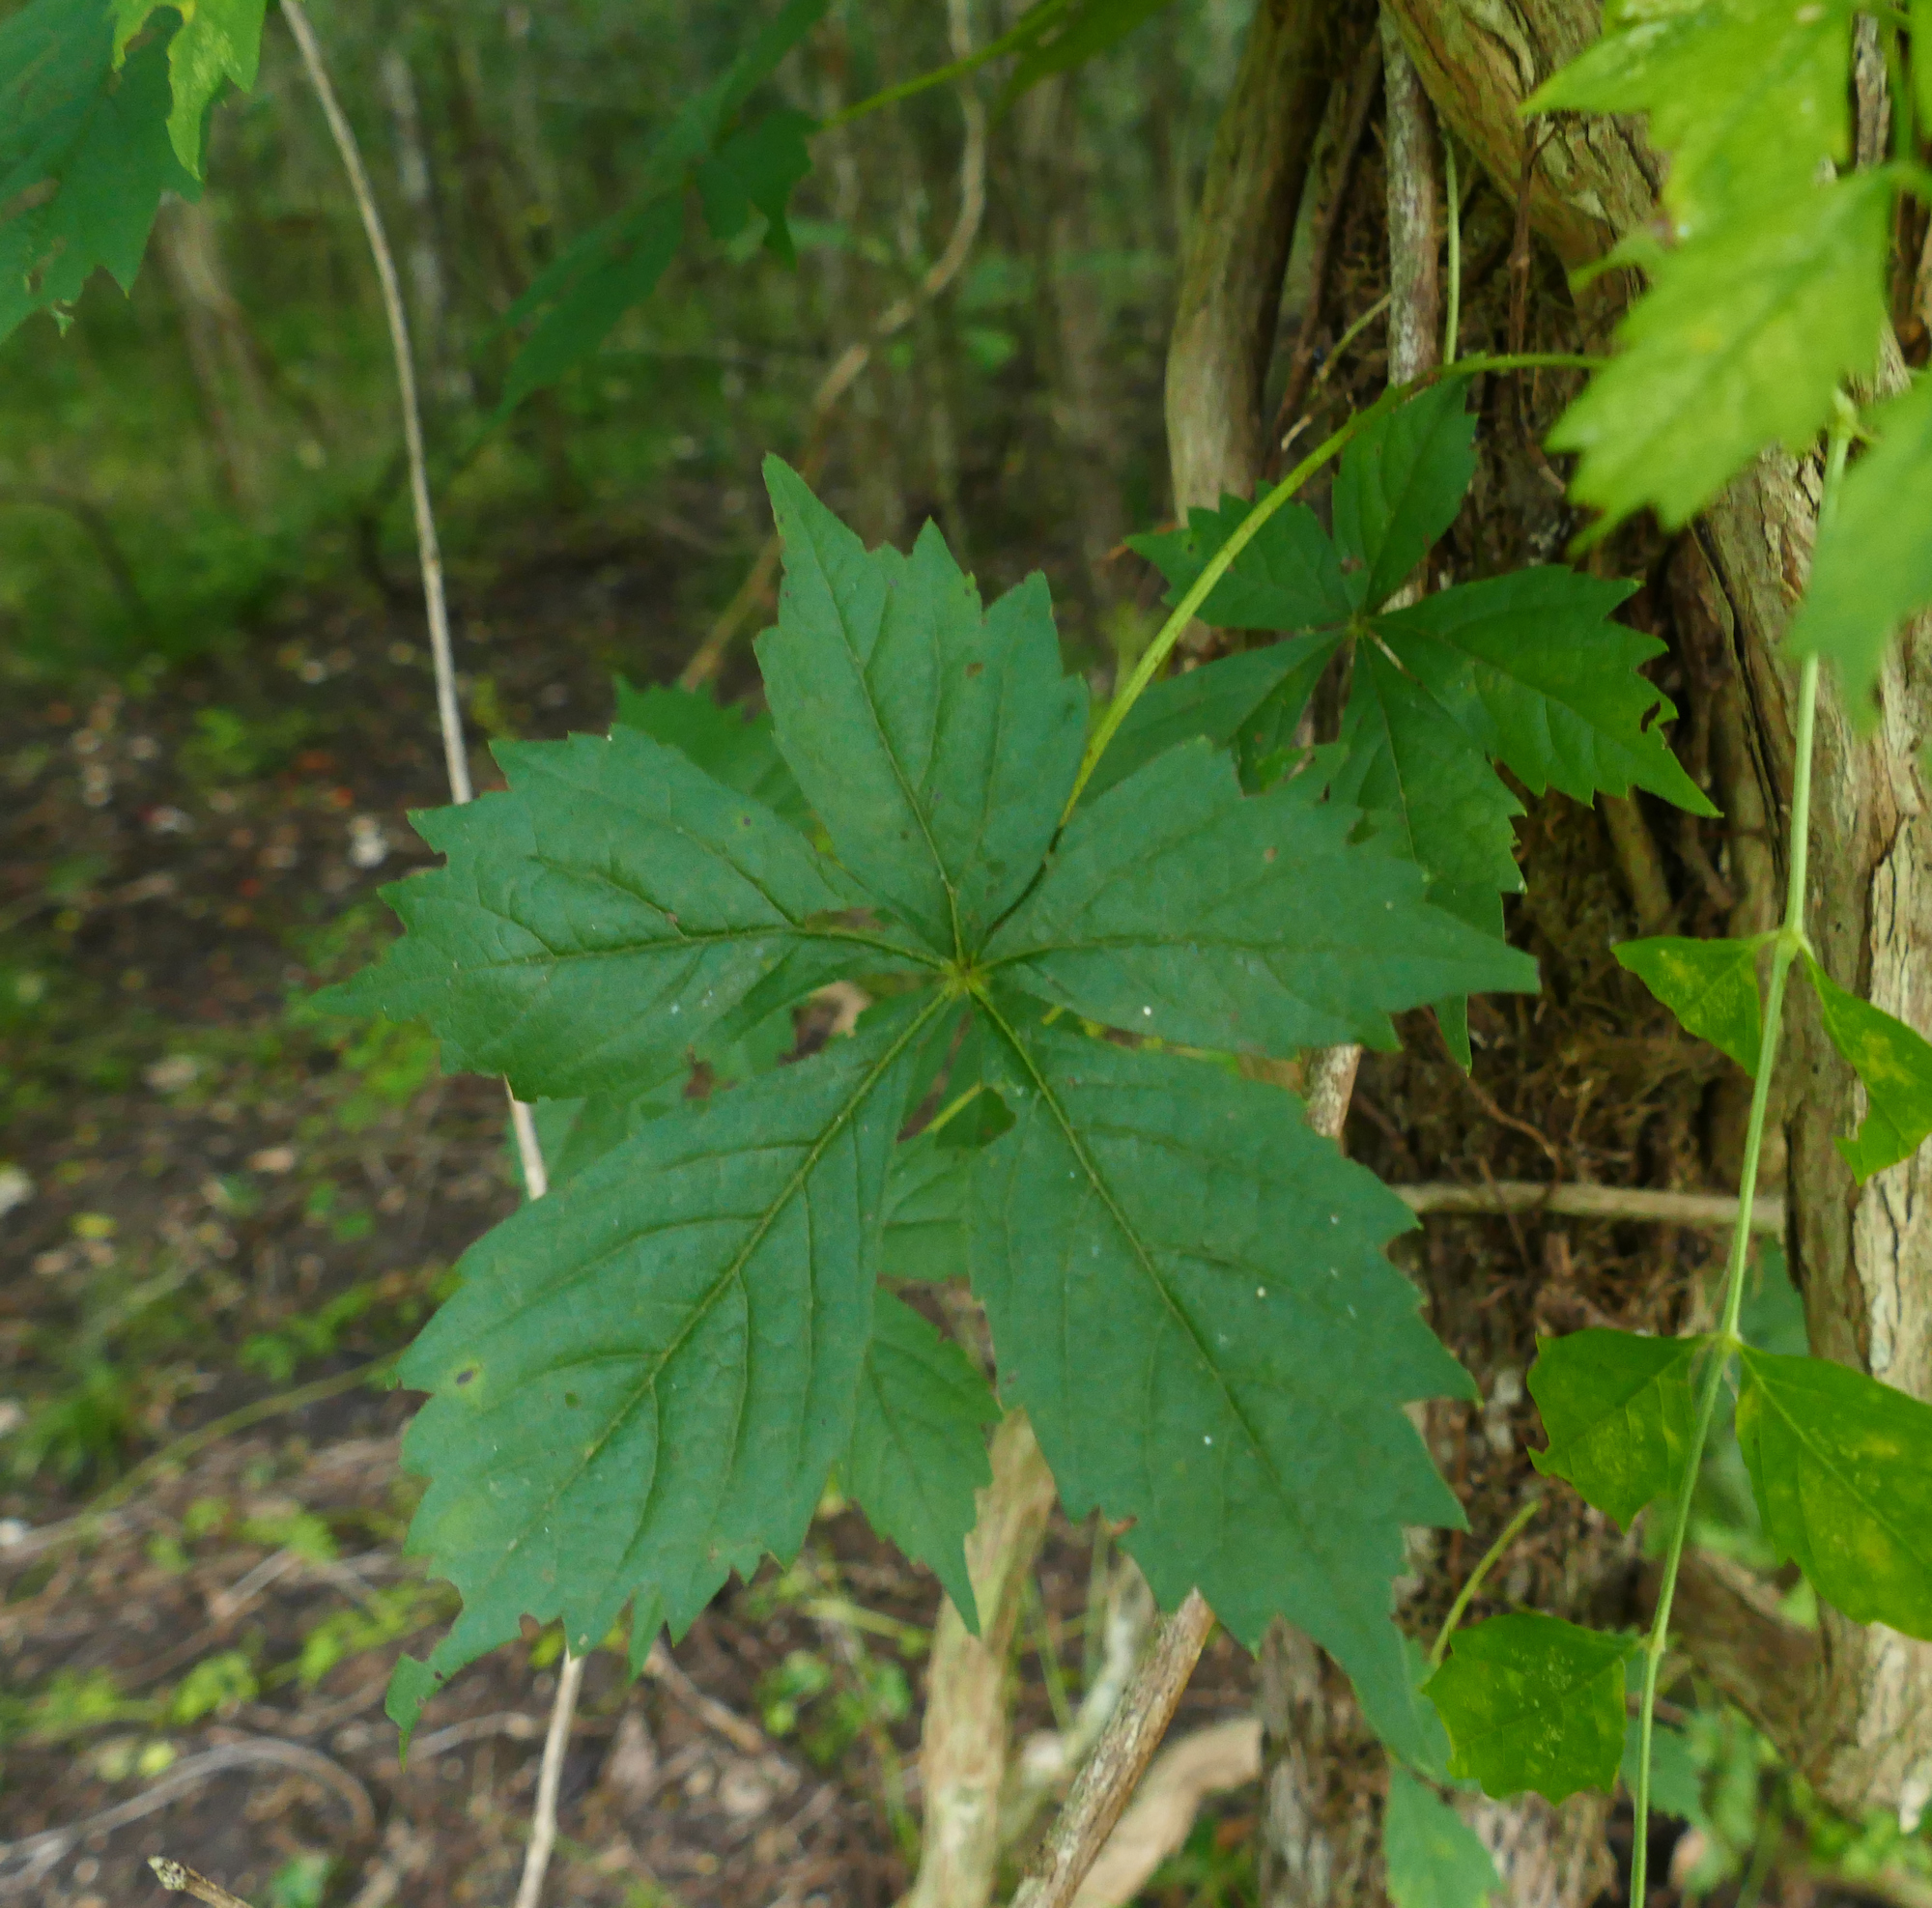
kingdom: Plantae
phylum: Tracheophyta
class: Magnoliopsida
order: Vitales
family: Vitaceae
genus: Parthenocissus
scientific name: Parthenocissus quinquefolia
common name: Virginia-creeper
